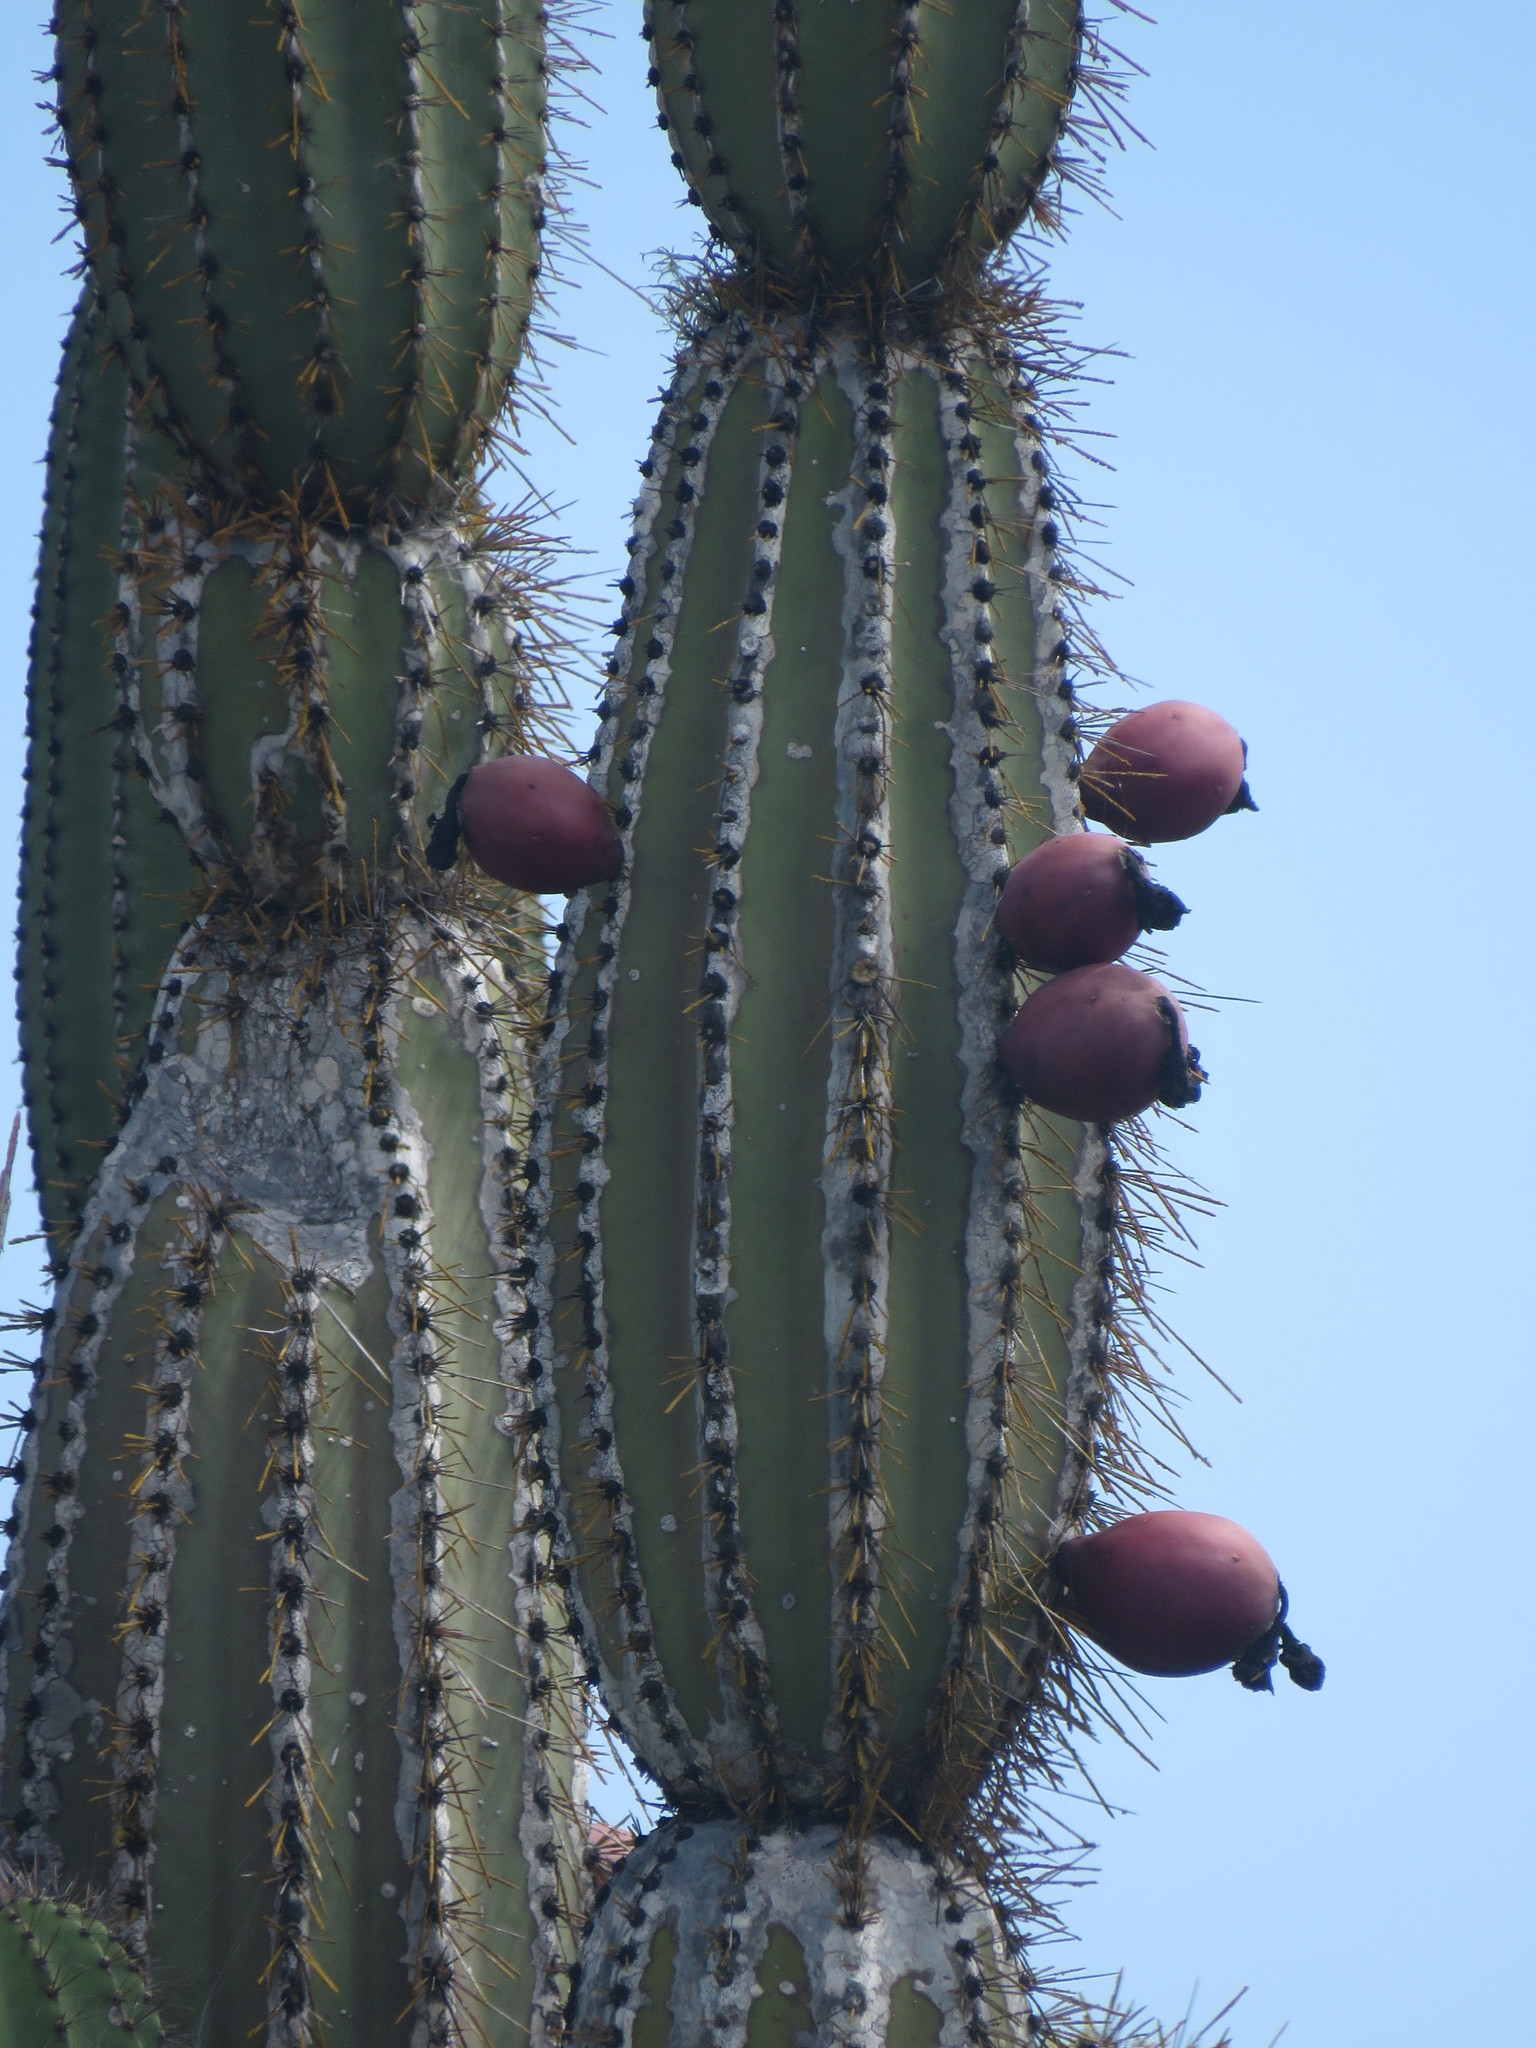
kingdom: Plantae
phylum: Tracheophyta
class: Magnoliopsida
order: Caryophyllales
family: Cactaceae
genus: Jasminocereus
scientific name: Jasminocereus thouarsii
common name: Candelabra cactus
